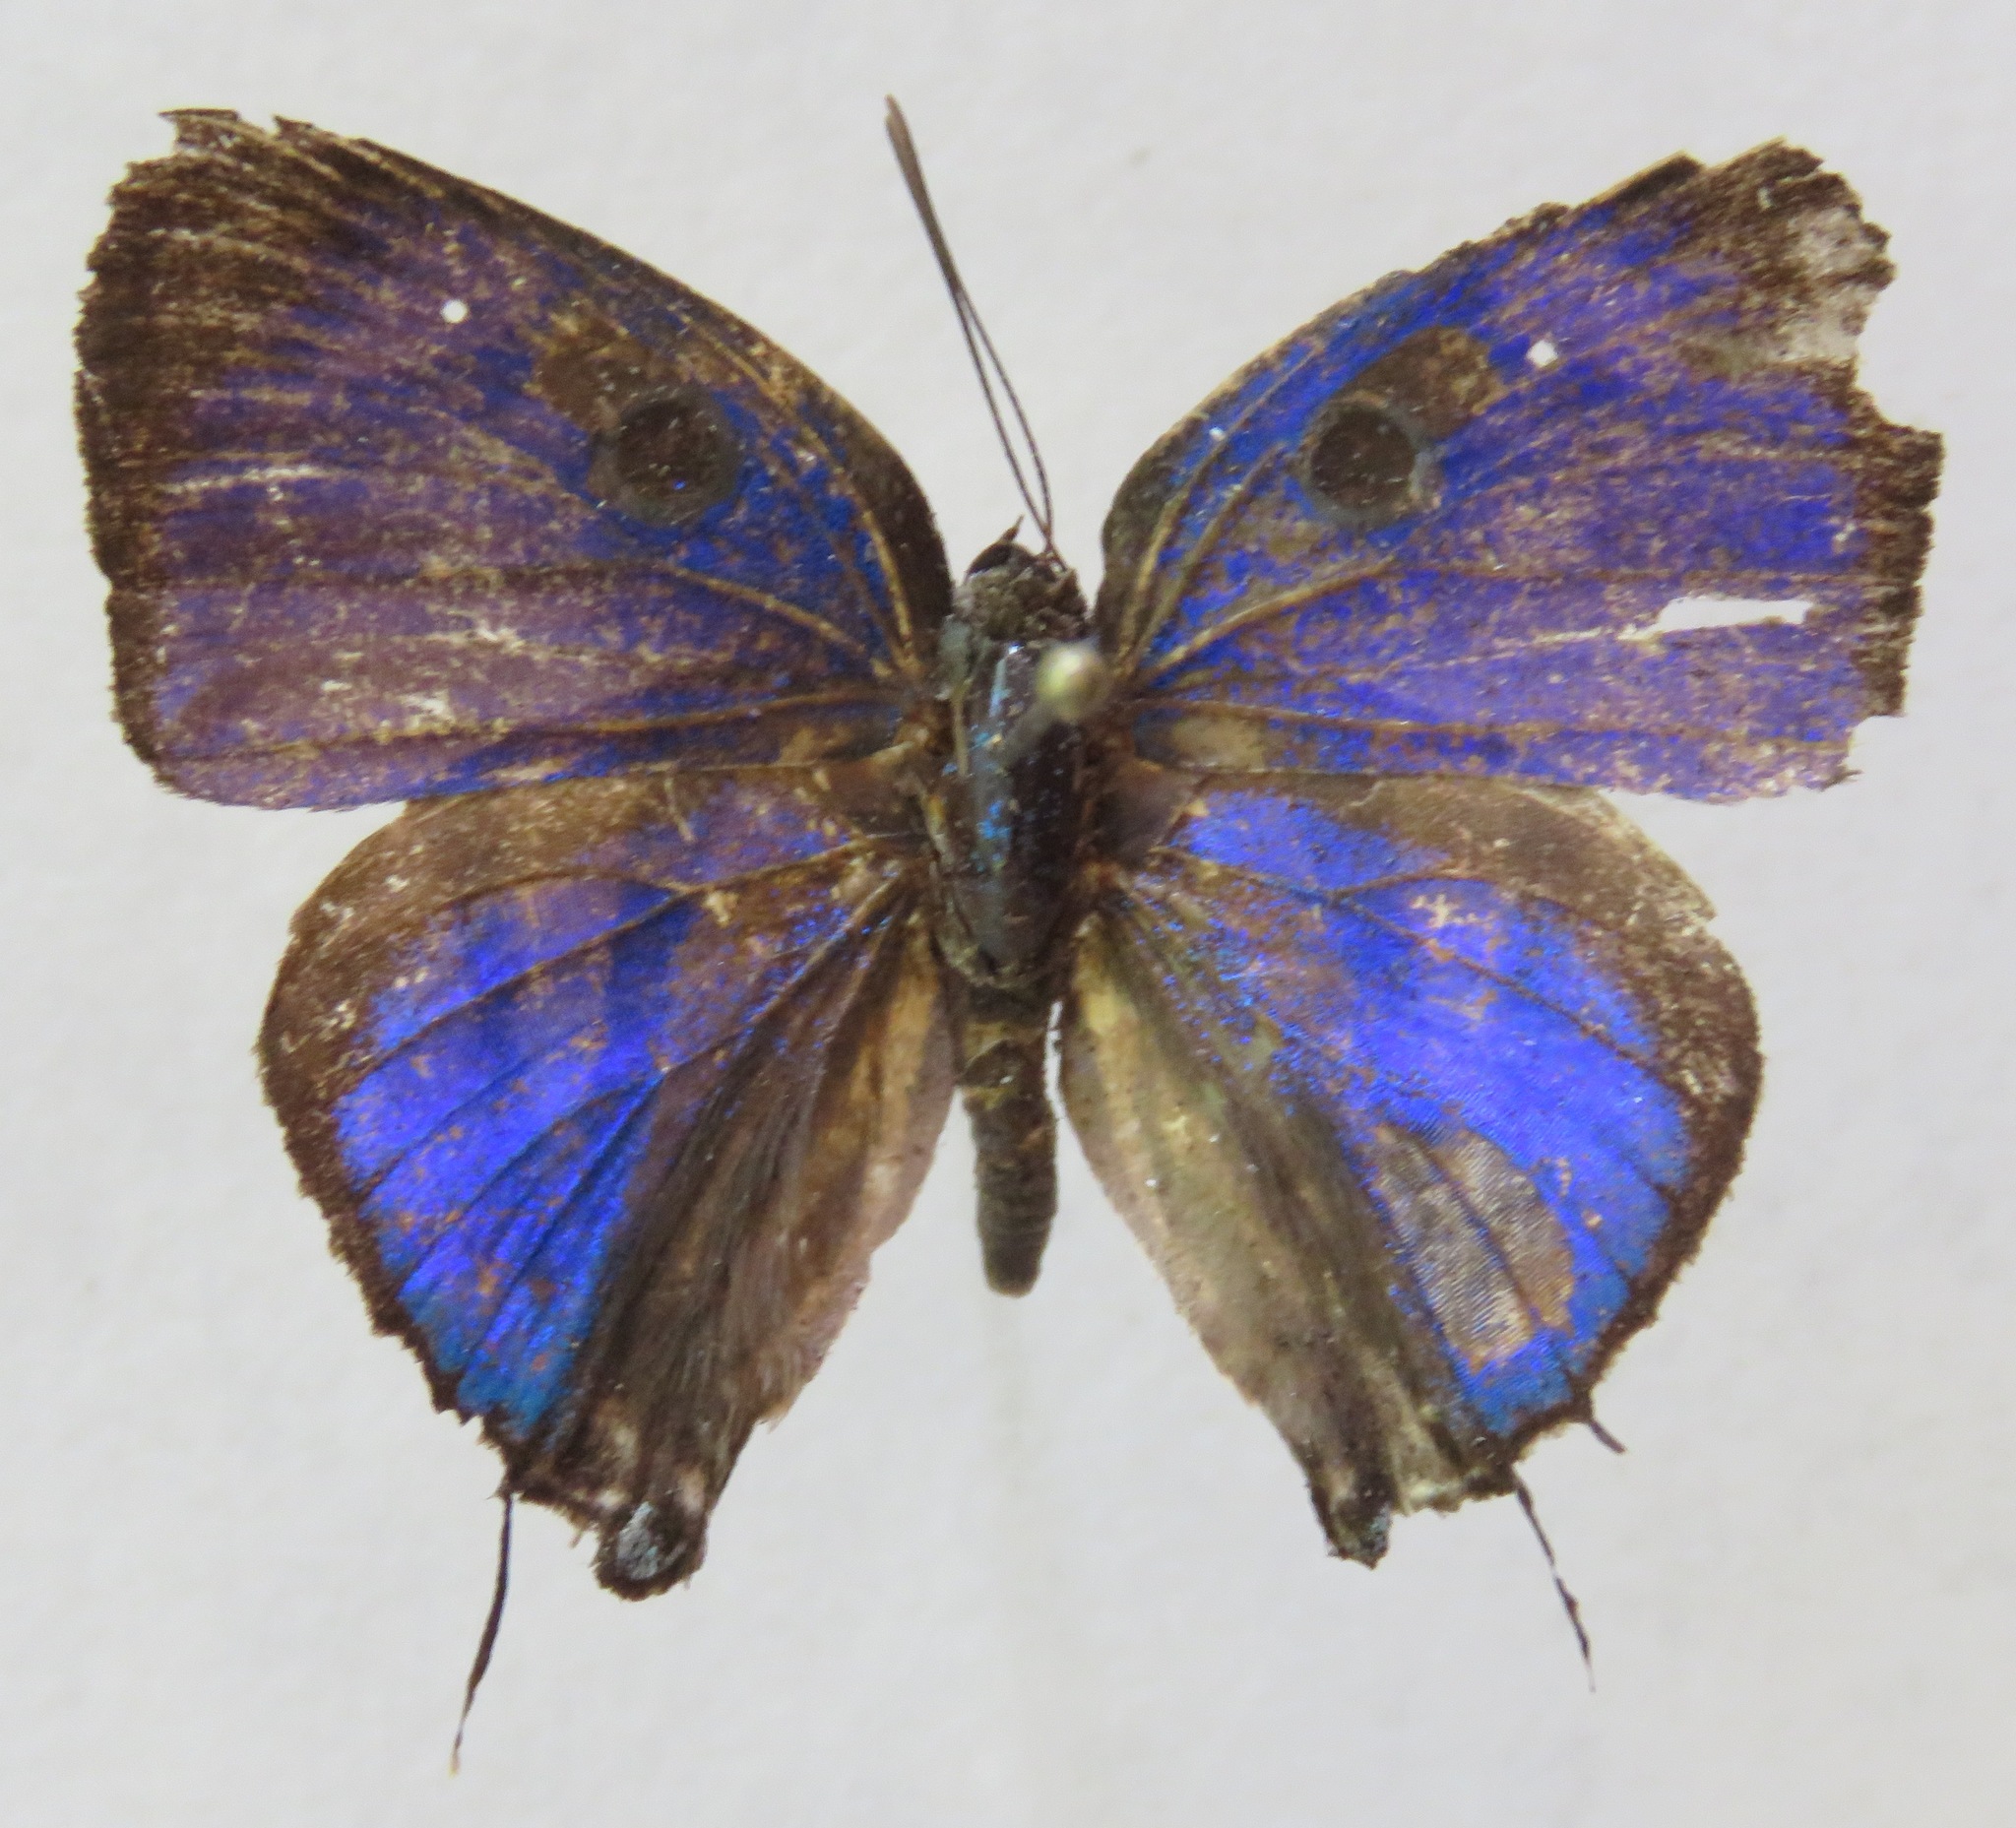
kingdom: Animalia
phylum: Arthropoda
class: Insecta
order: Lepidoptera
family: Lycaenidae
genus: Cycnus
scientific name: Cycnus phaleros
